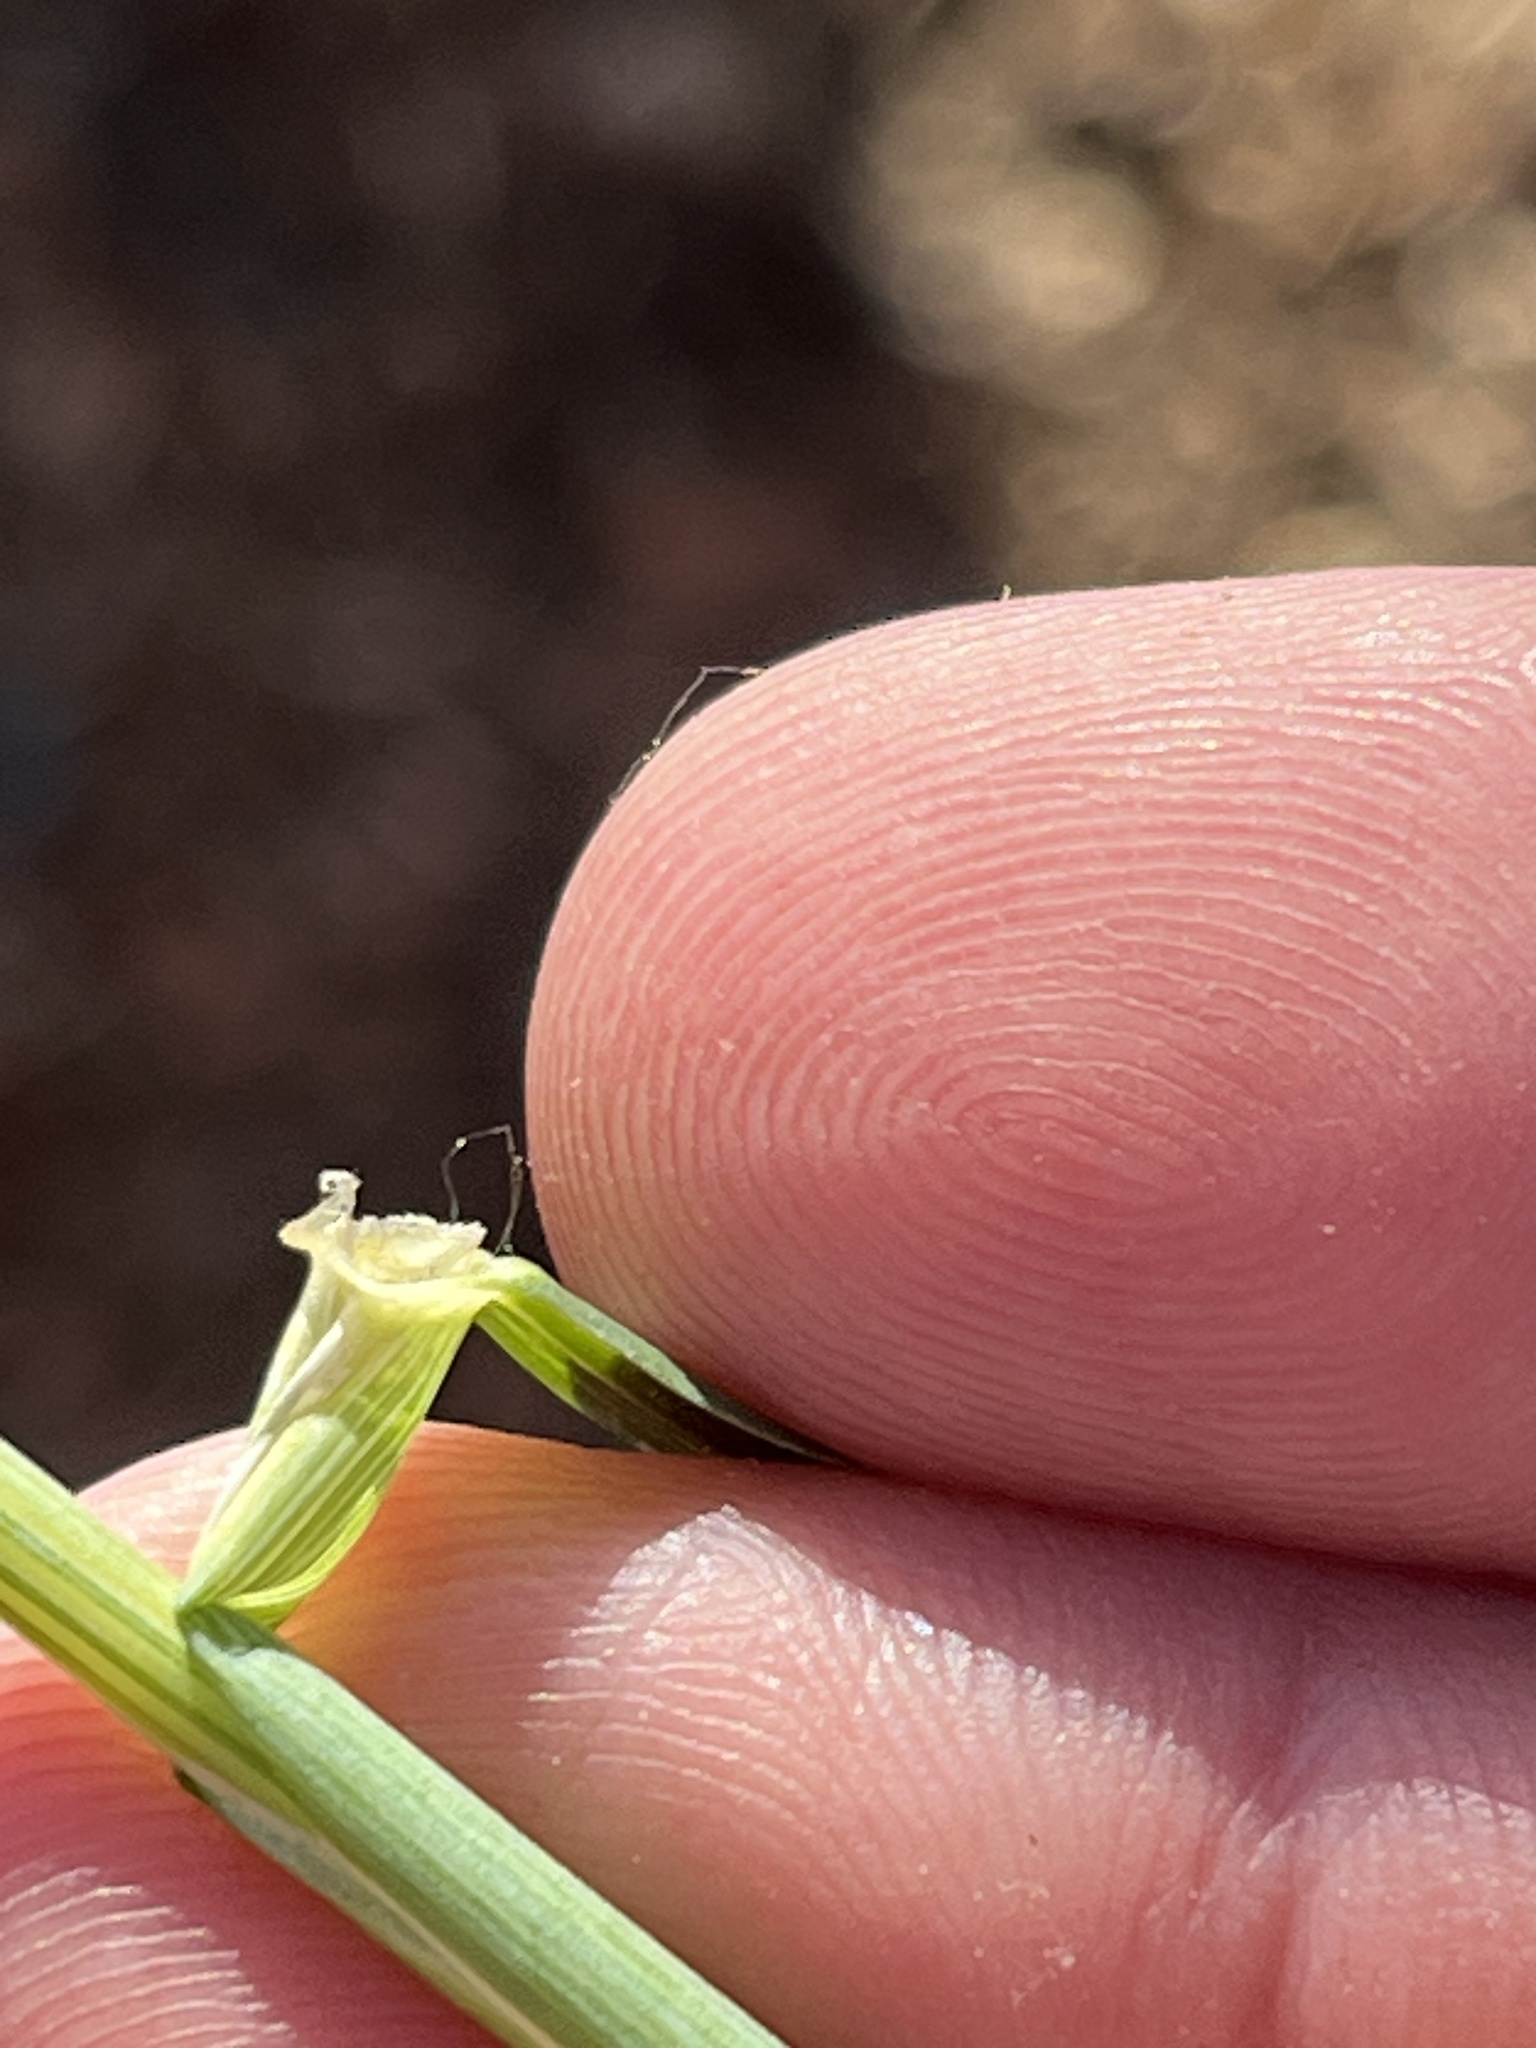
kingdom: Plantae
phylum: Tracheophyta
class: Liliopsida
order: Poales
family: Poaceae
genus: Triticum
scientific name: Triticum aestivum
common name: Common wheat
